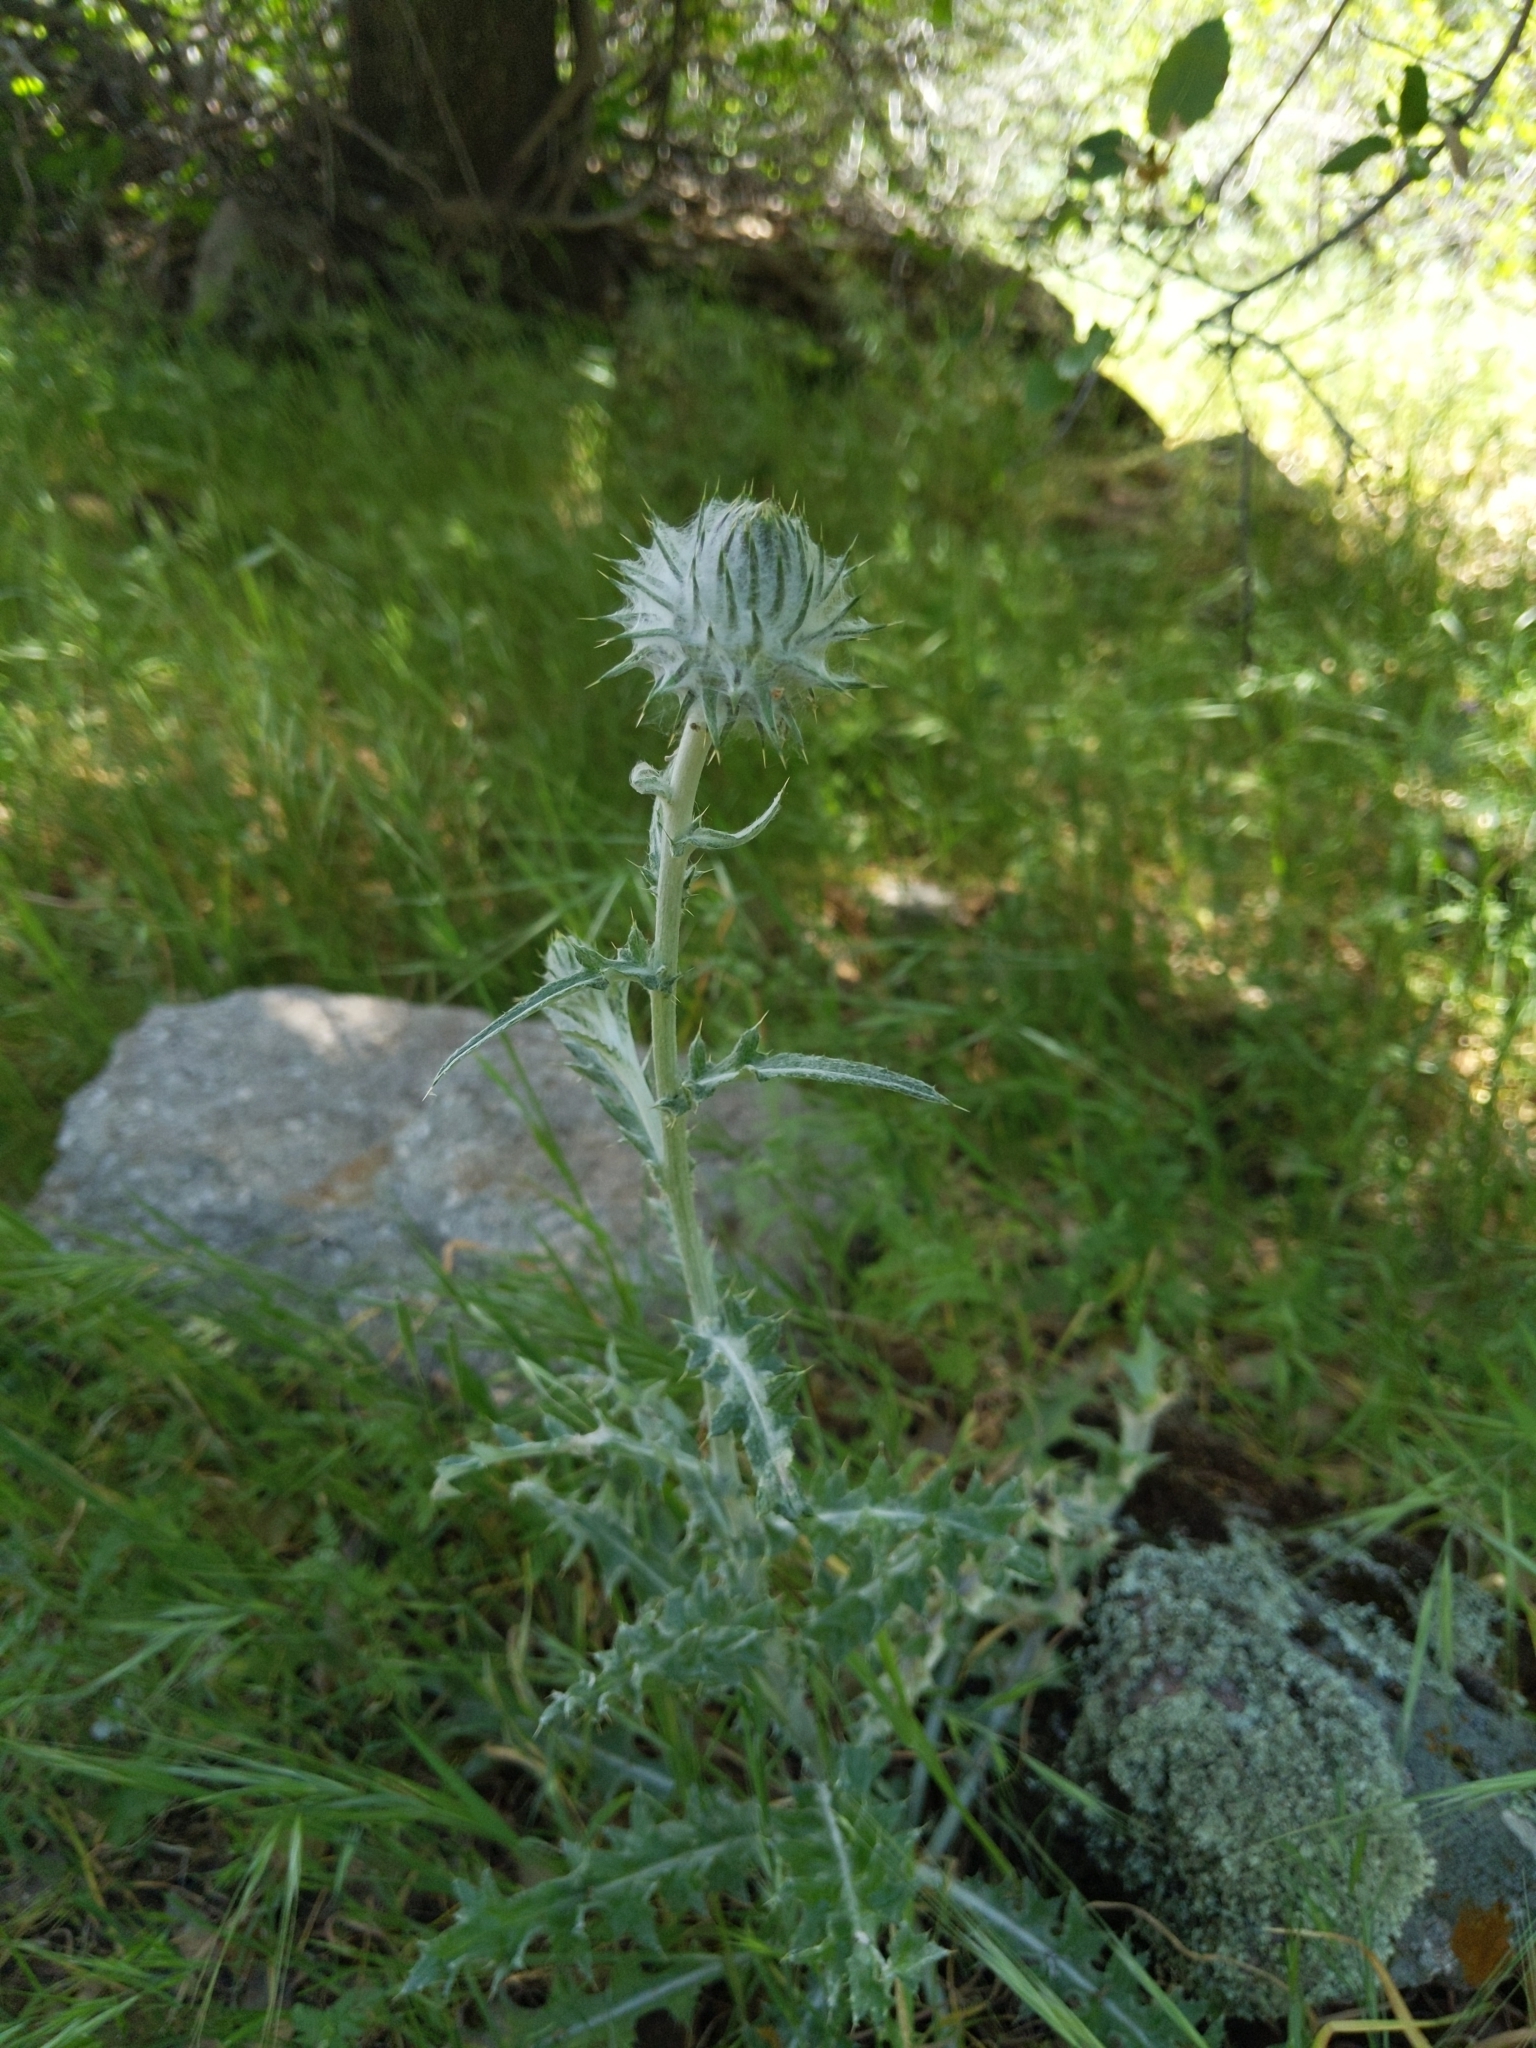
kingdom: Plantae
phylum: Tracheophyta
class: Magnoliopsida
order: Asterales
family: Asteraceae
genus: Cirsium
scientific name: Cirsium occidentale
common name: Western thistle
